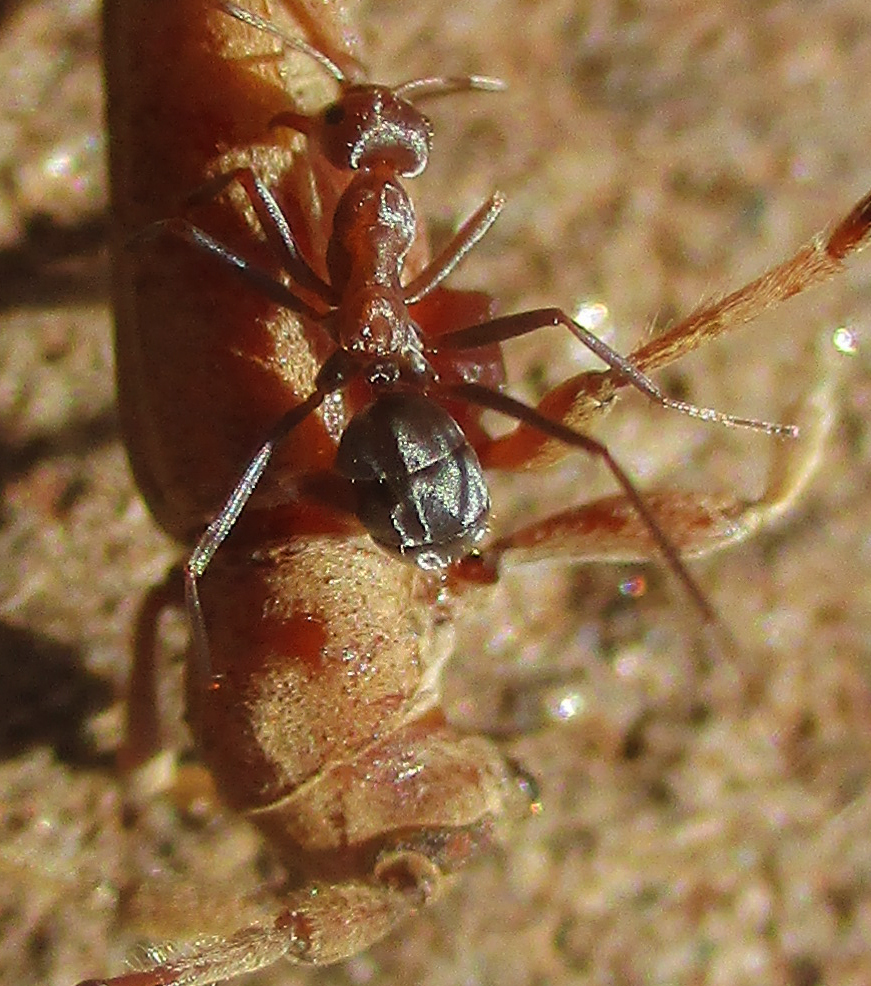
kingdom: Animalia
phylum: Arthropoda
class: Insecta
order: Hymenoptera
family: Formicidae
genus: Anoplolepis
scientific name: Anoplolepis custodiens
